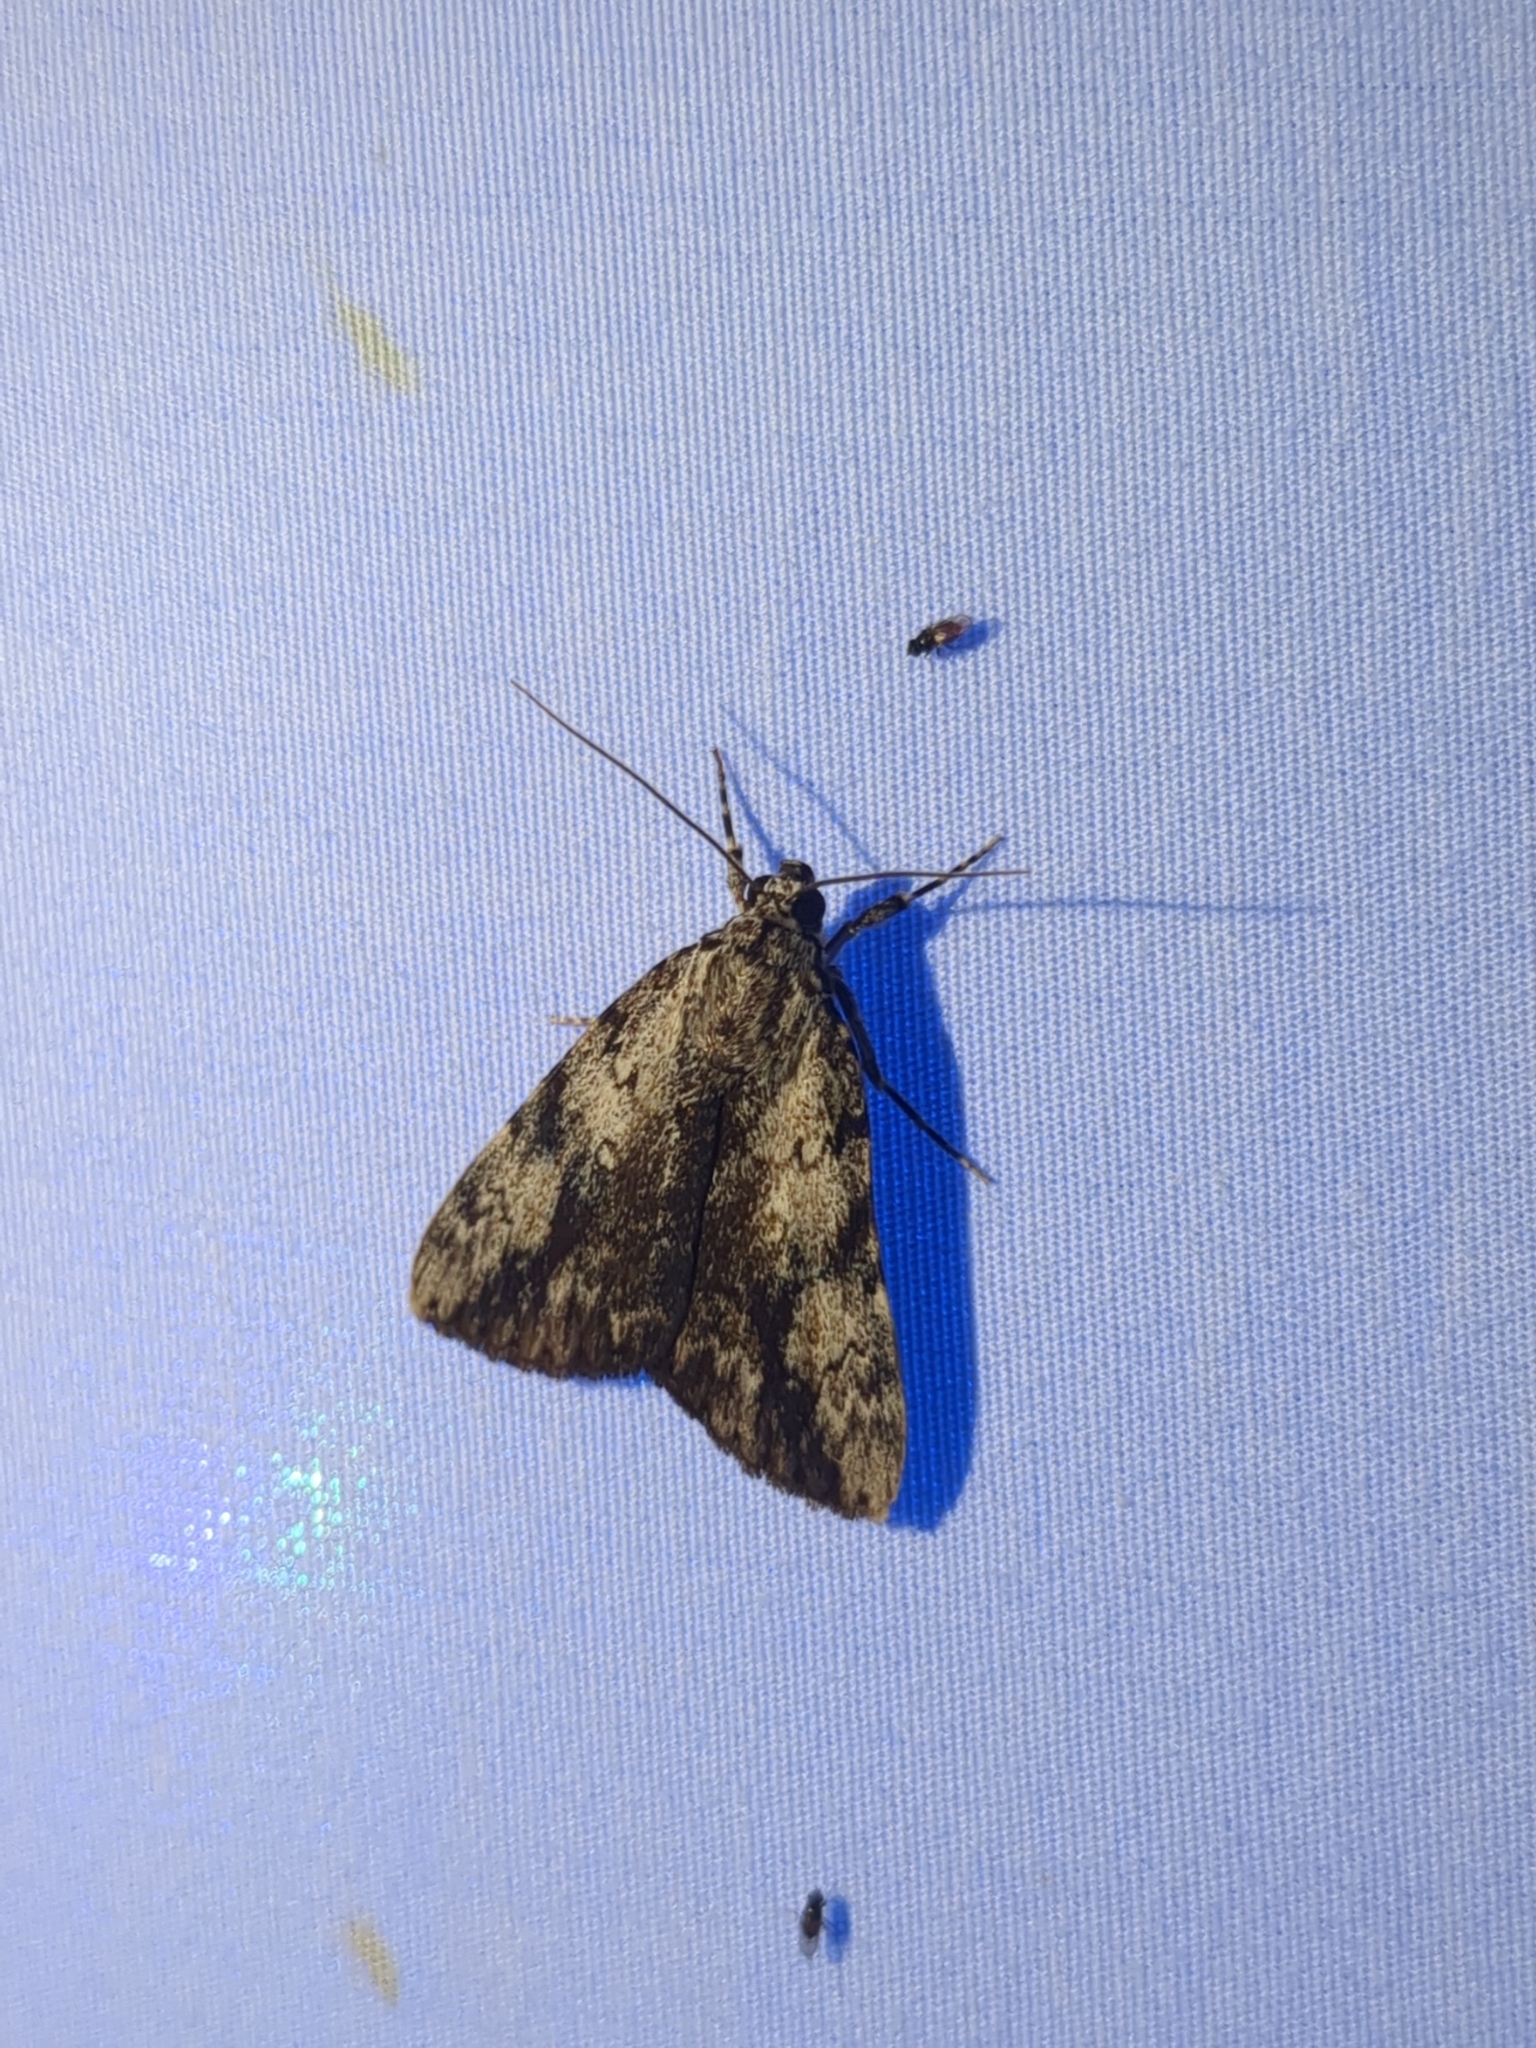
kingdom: Animalia
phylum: Arthropoda
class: Insecta
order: Lepidoptera
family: Erebidae
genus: Catocala
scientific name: Catocala amica
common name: Girlfriend underwing
